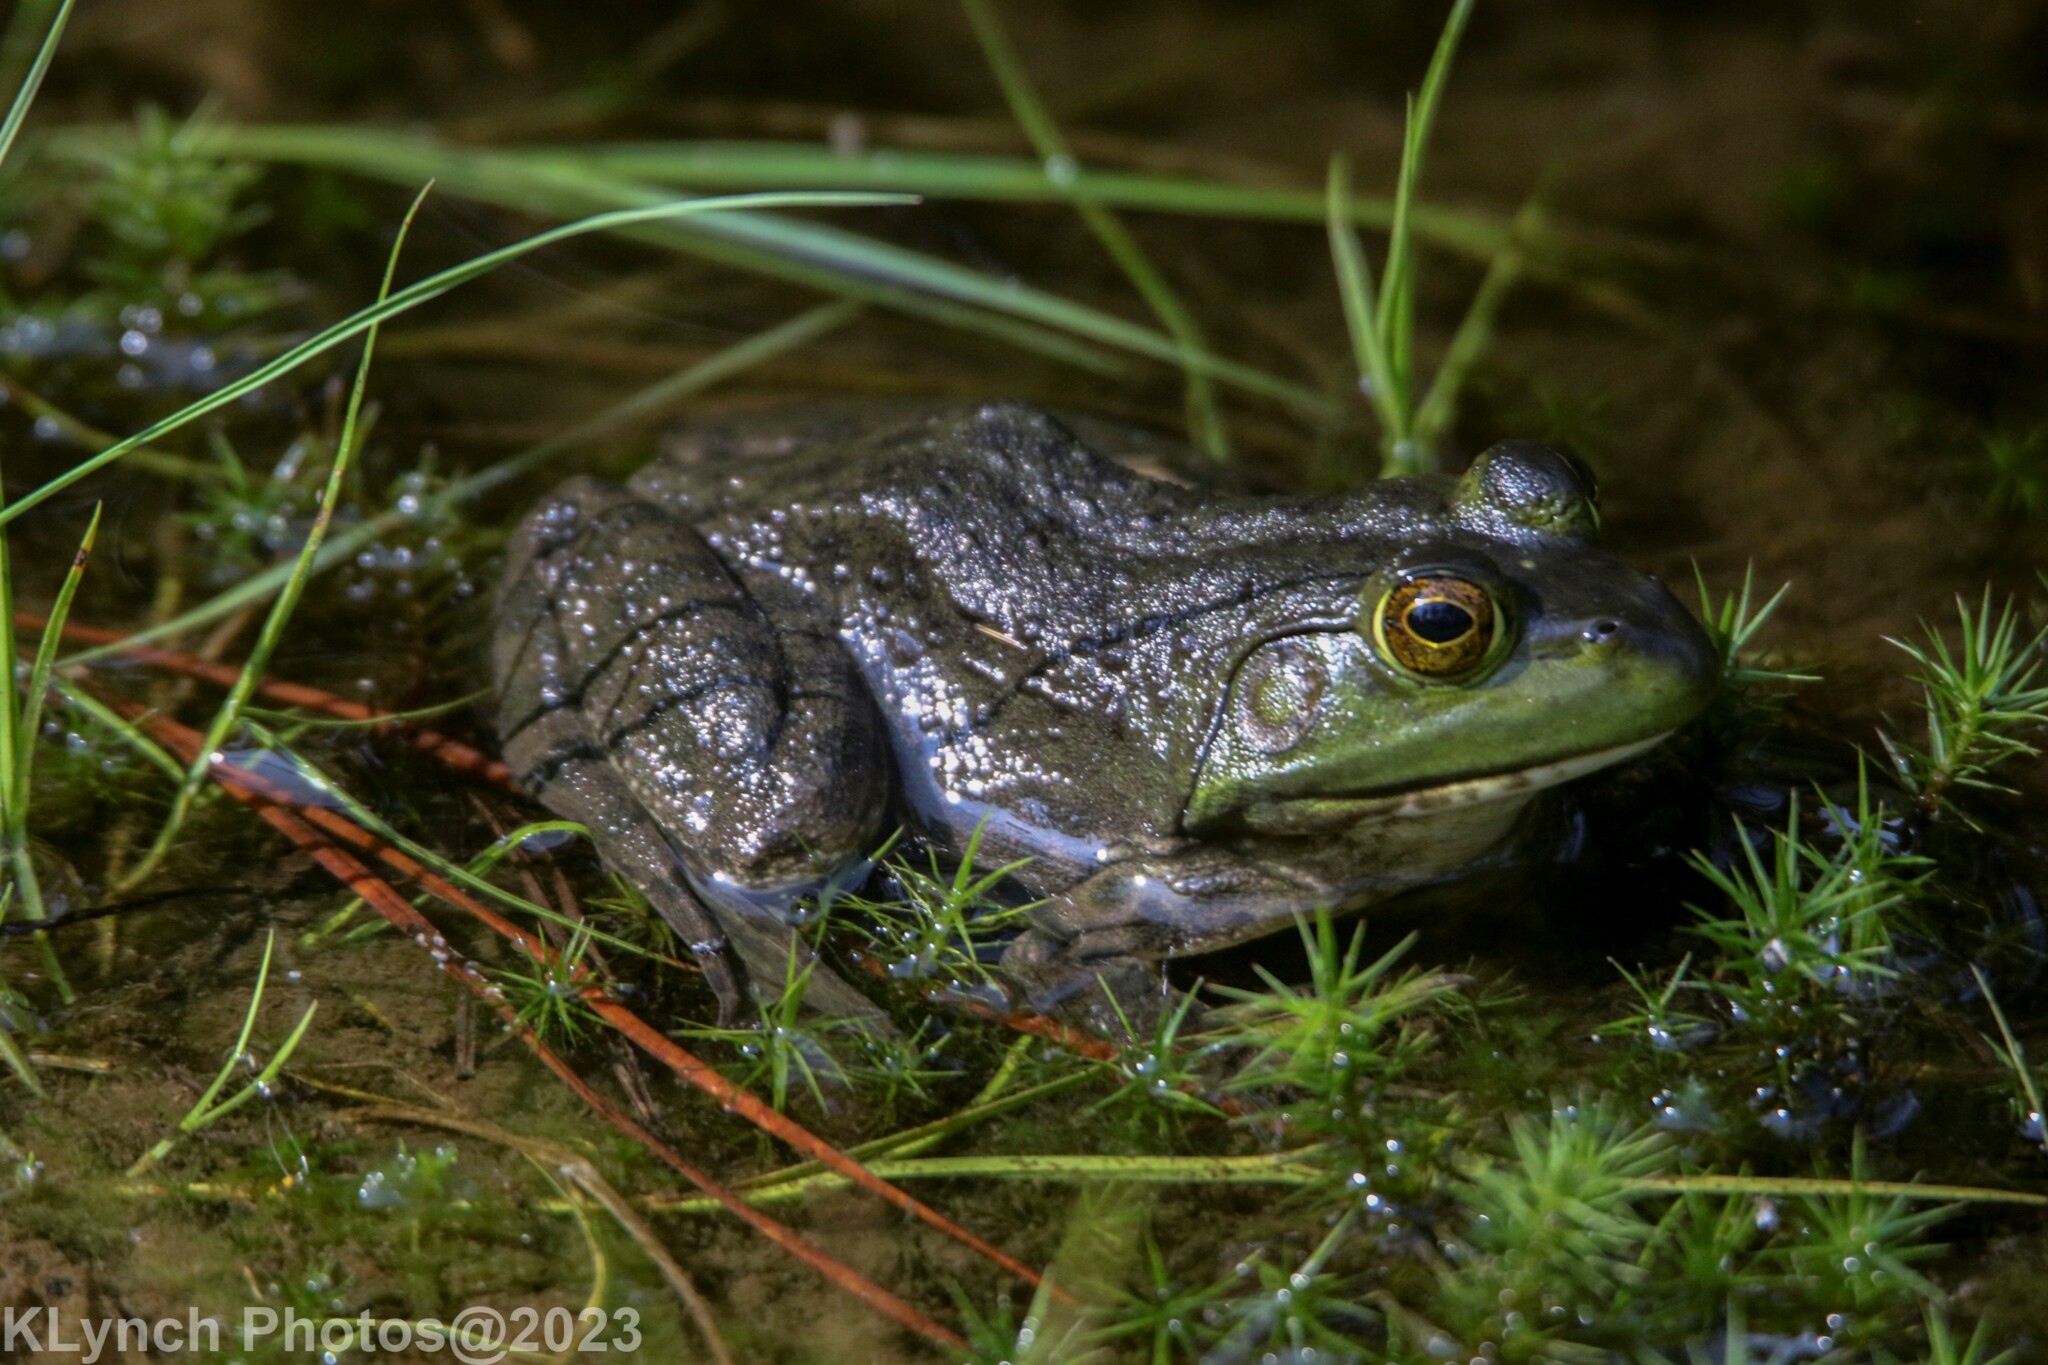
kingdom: Animalia
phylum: Chordata
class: Amphibia
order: Anura
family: Ranidae
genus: Lithobates
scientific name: Lithobates catesbeianus
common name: American bullfrog
